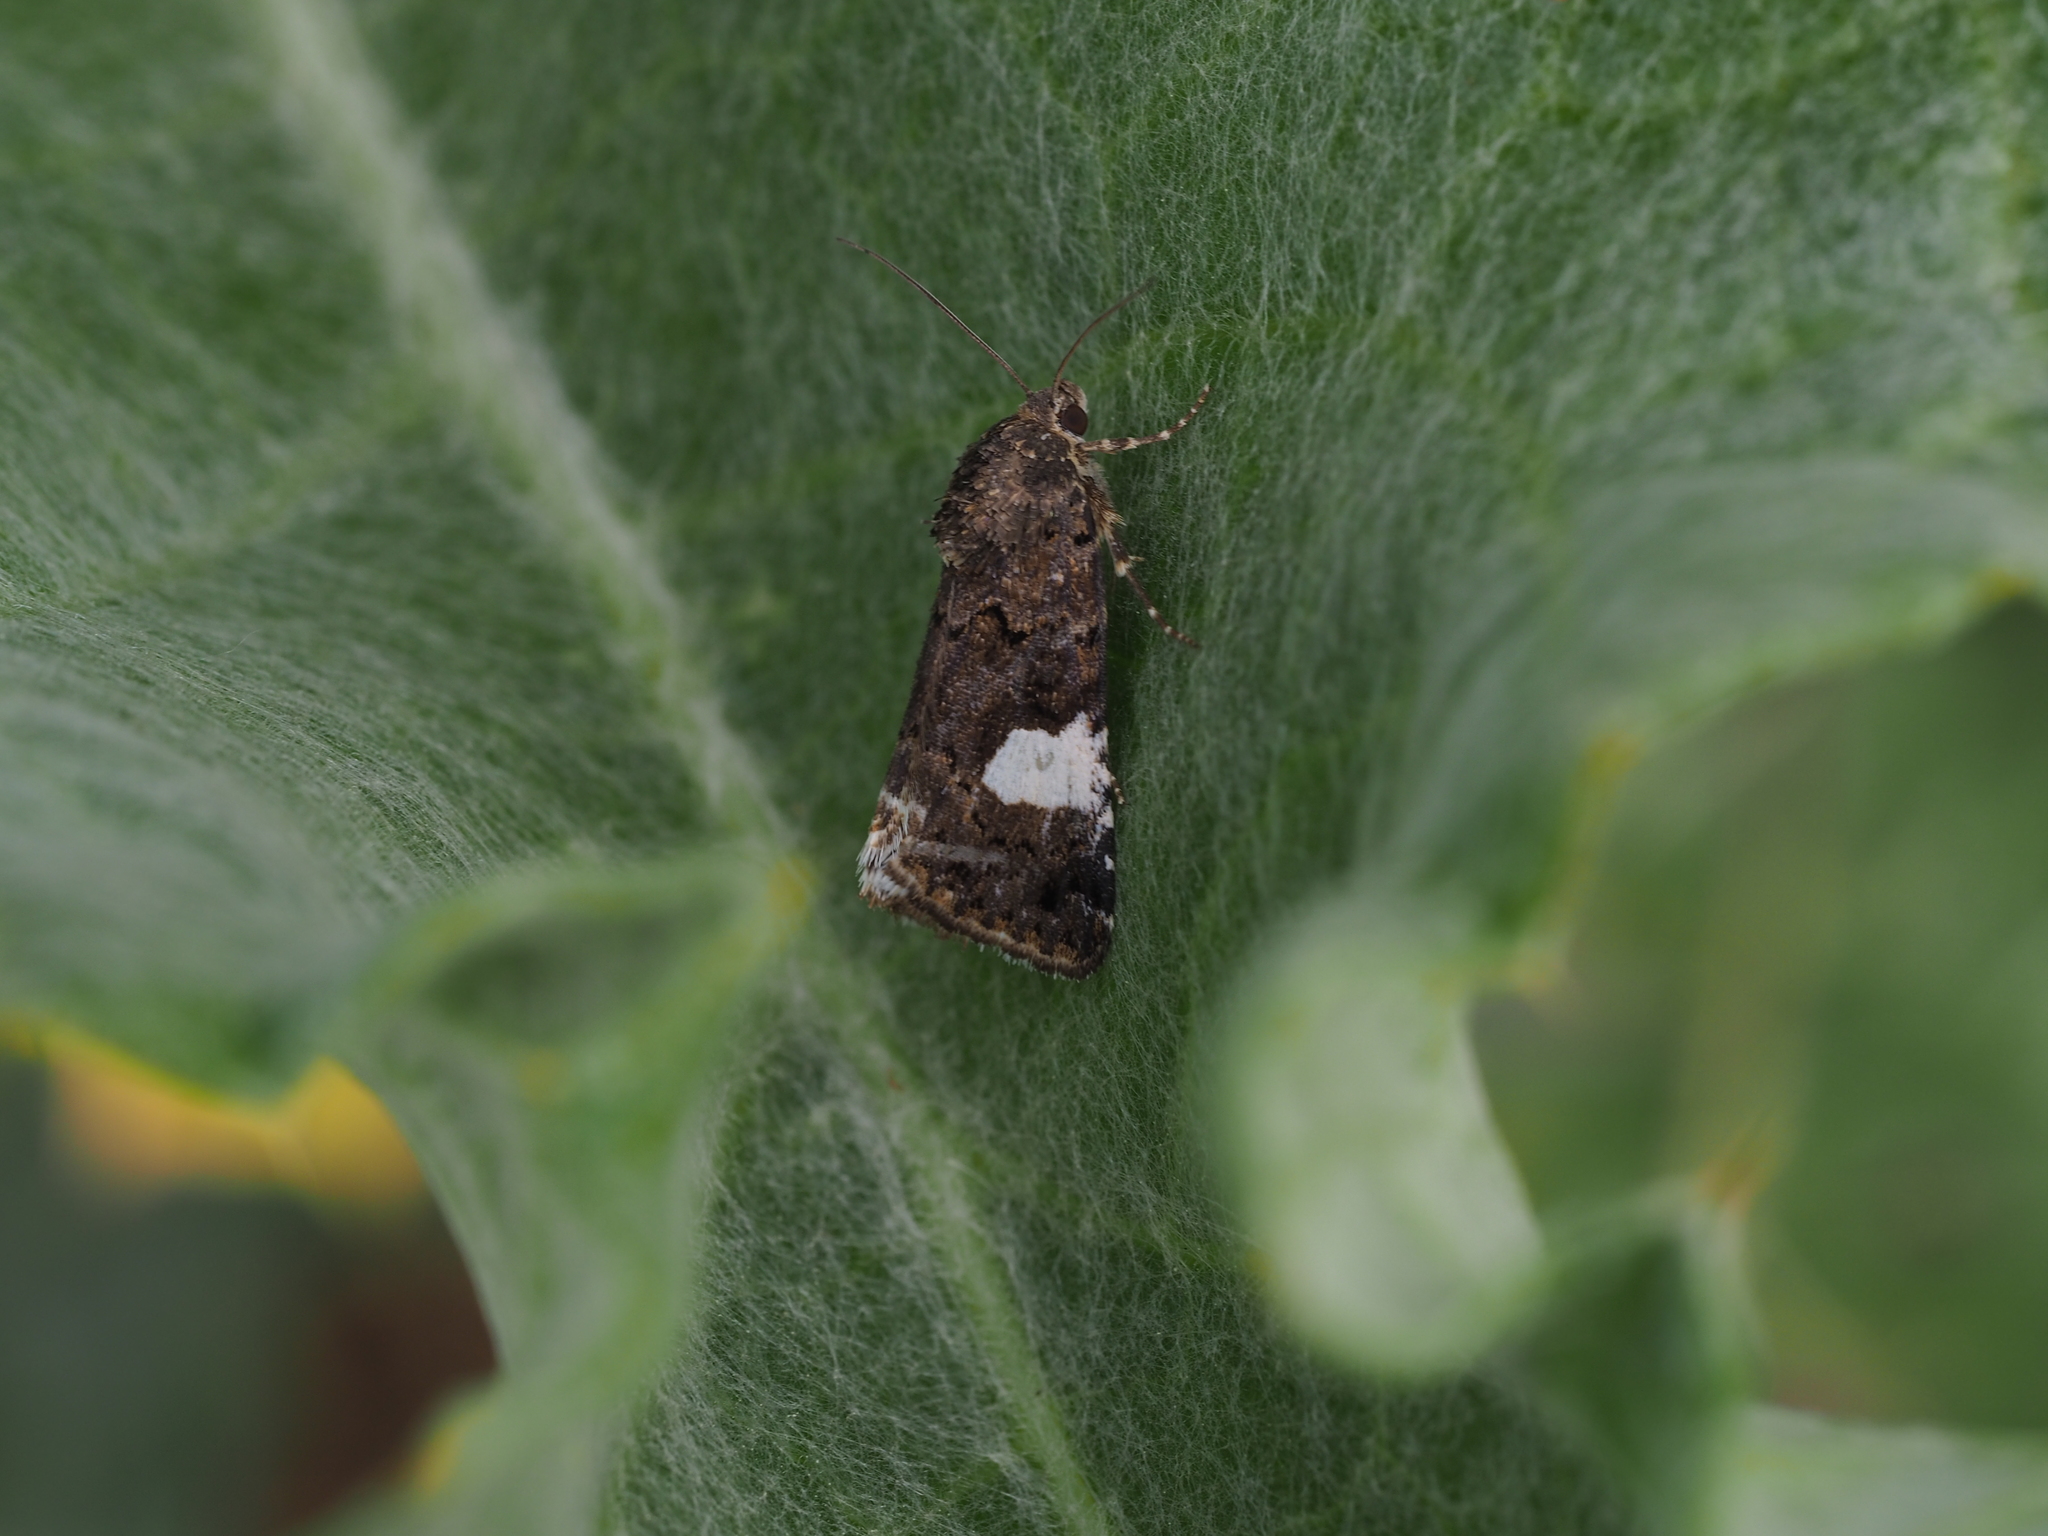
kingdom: Animalia
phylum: Arthropoda
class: Insecta
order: Lepidoptera
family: Erebidae
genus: Tyta
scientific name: Tyta luctuosa
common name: Four-spotted
